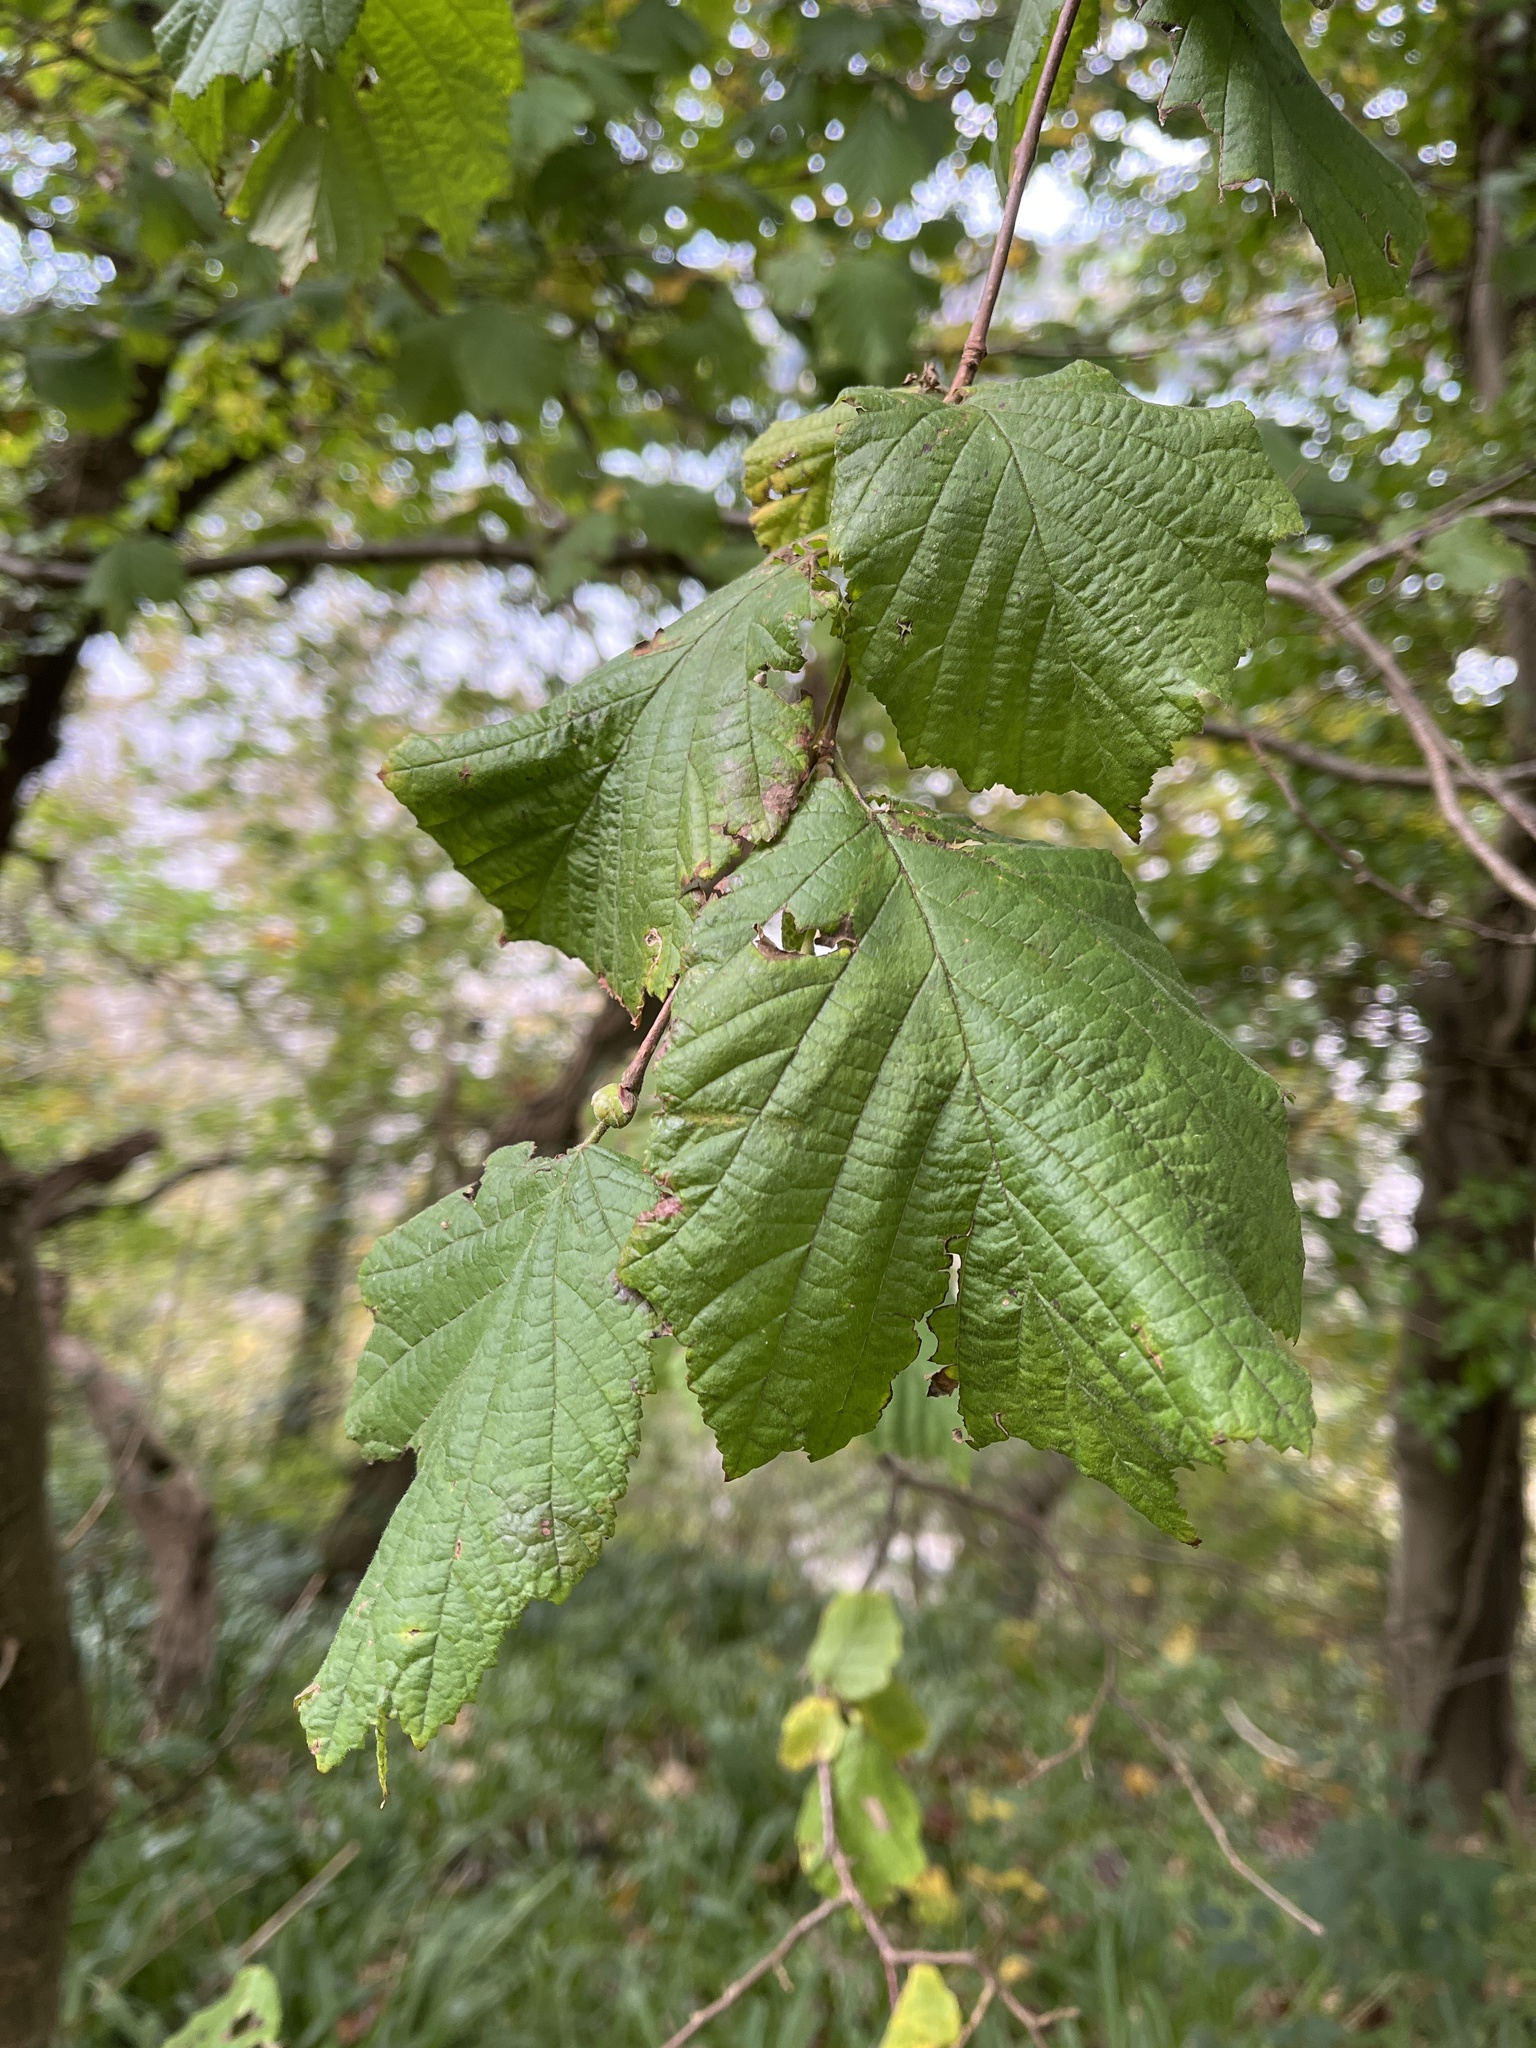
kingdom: Plantae
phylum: Tracheophyta
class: Magnoliopsida
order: Fagales
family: Betulaceae
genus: Corylus
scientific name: Corylus avellana
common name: European hazel
